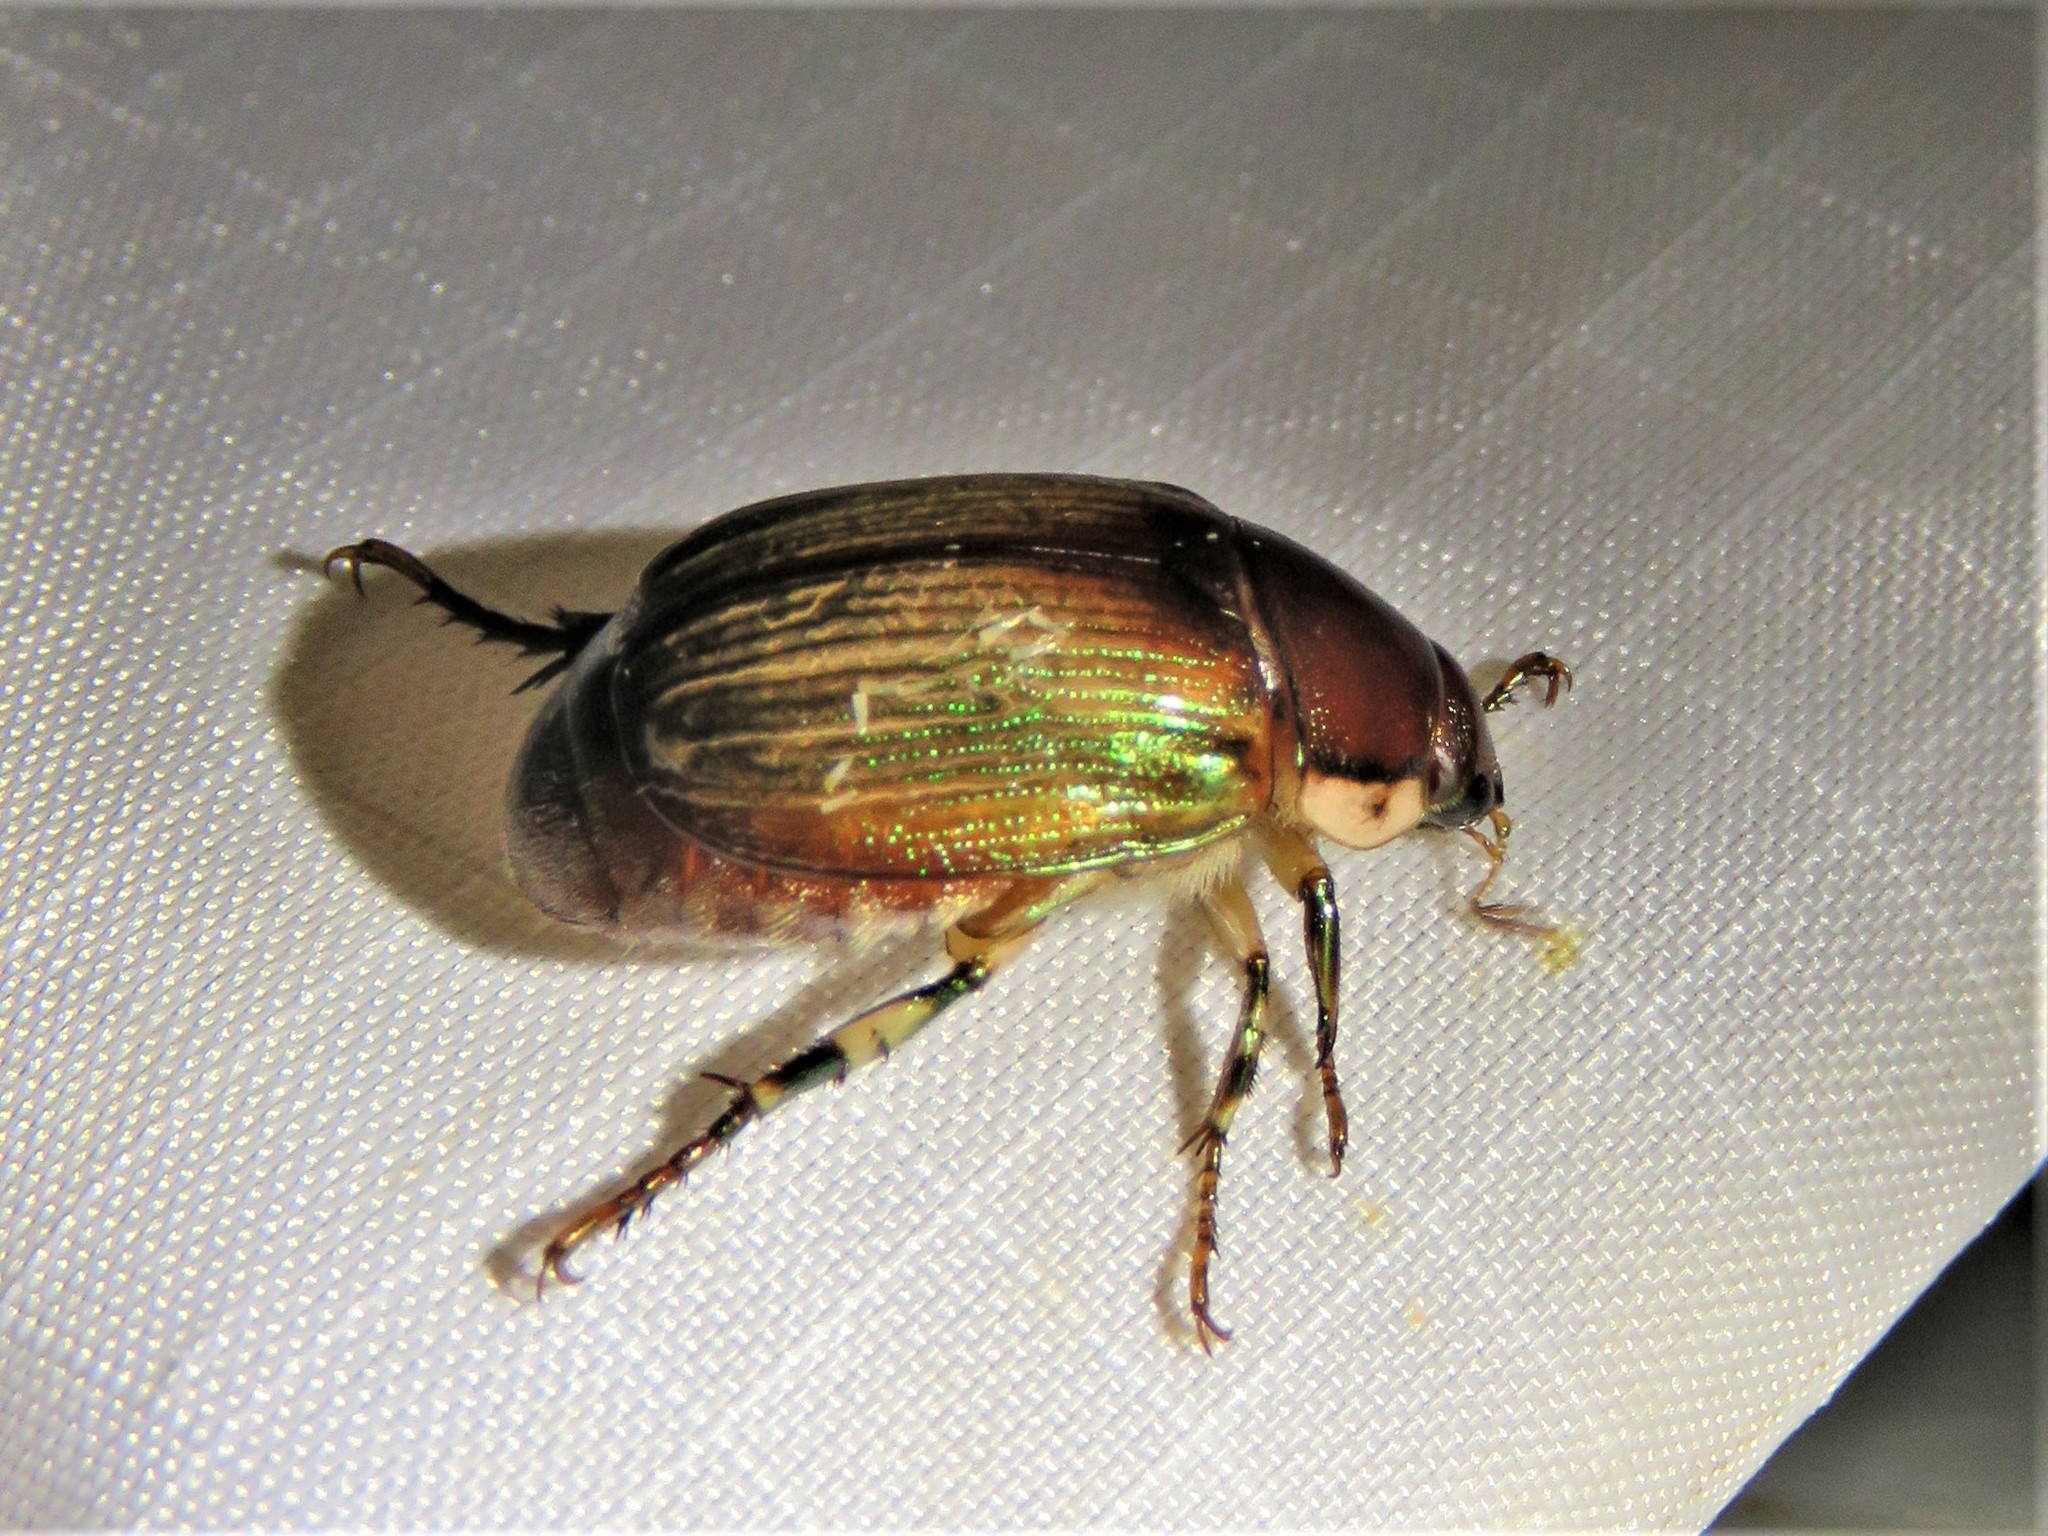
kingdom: Animalia
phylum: Arthropoda
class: Insecta
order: Coleoptera
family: Scarabaeidae
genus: Callistethus
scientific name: Callistethus marginatus
